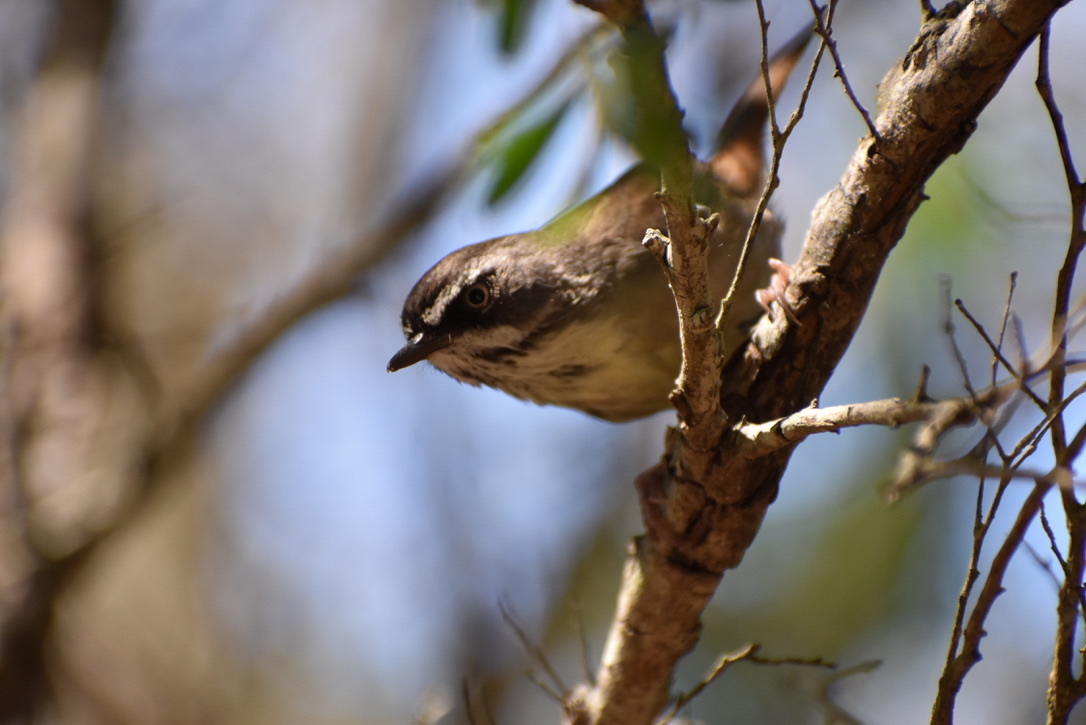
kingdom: Animalia
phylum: Chordata
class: Aves
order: Passeriformes
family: Acanthizidae
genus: Sericornis
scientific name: Sericornis frontalis
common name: White-browed scrubwren
